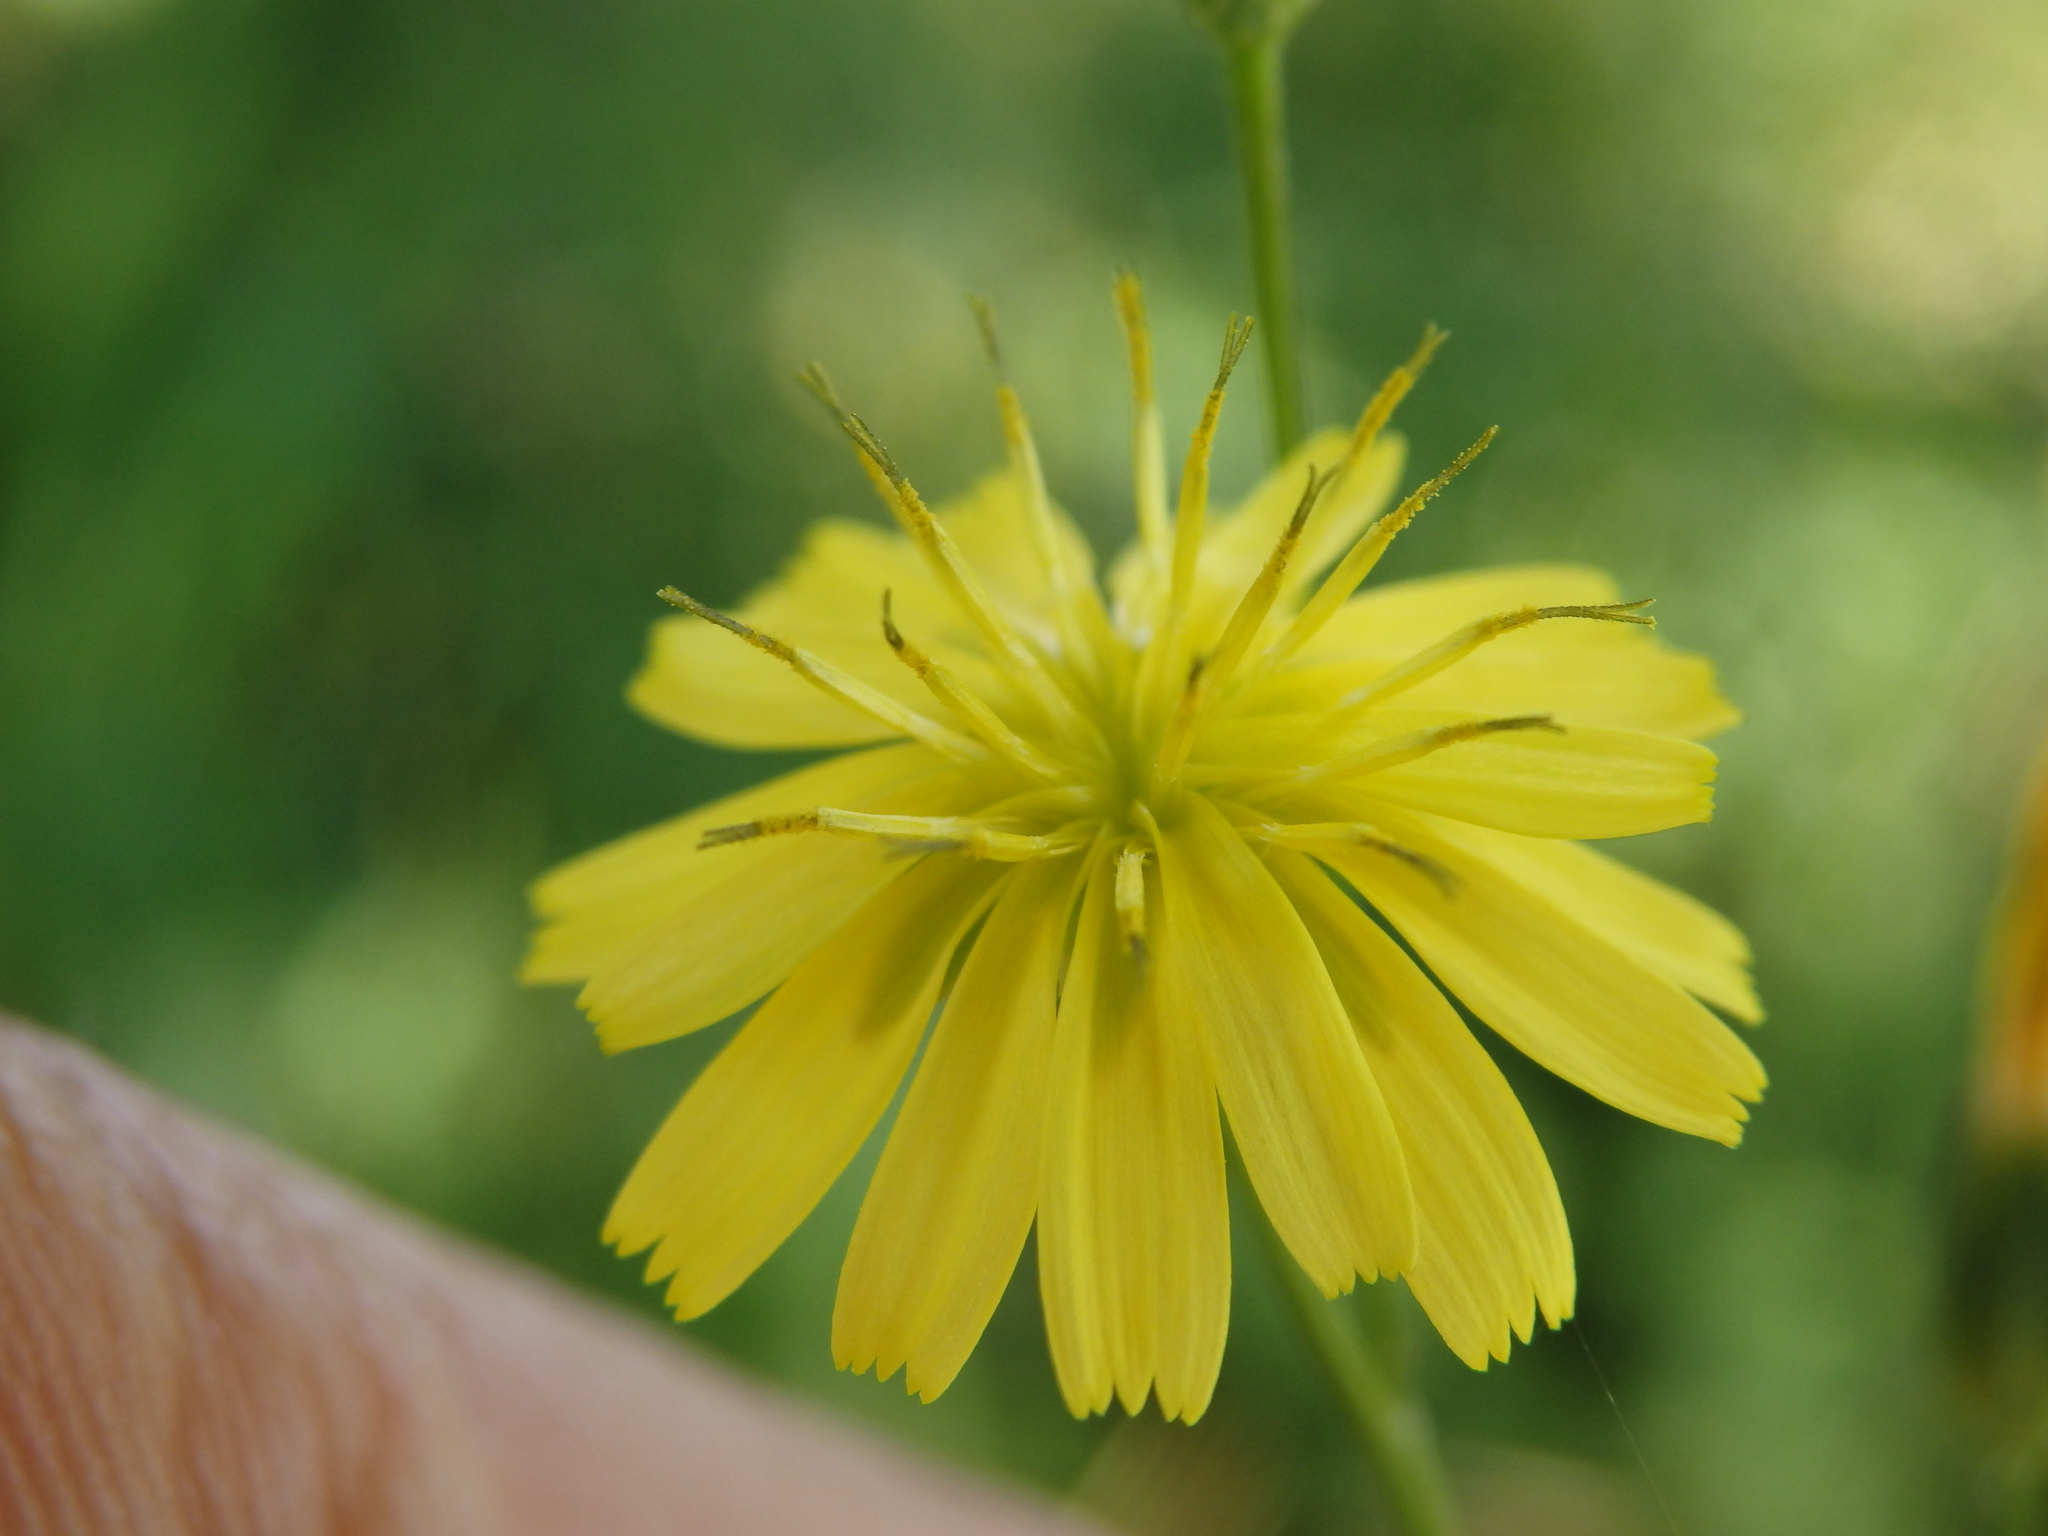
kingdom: Plantae
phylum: Tracheophyta
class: Magnoliopsida
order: Asterales
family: Asteraceae
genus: Lapsana
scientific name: Lapsana communis
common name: Nipplewort
